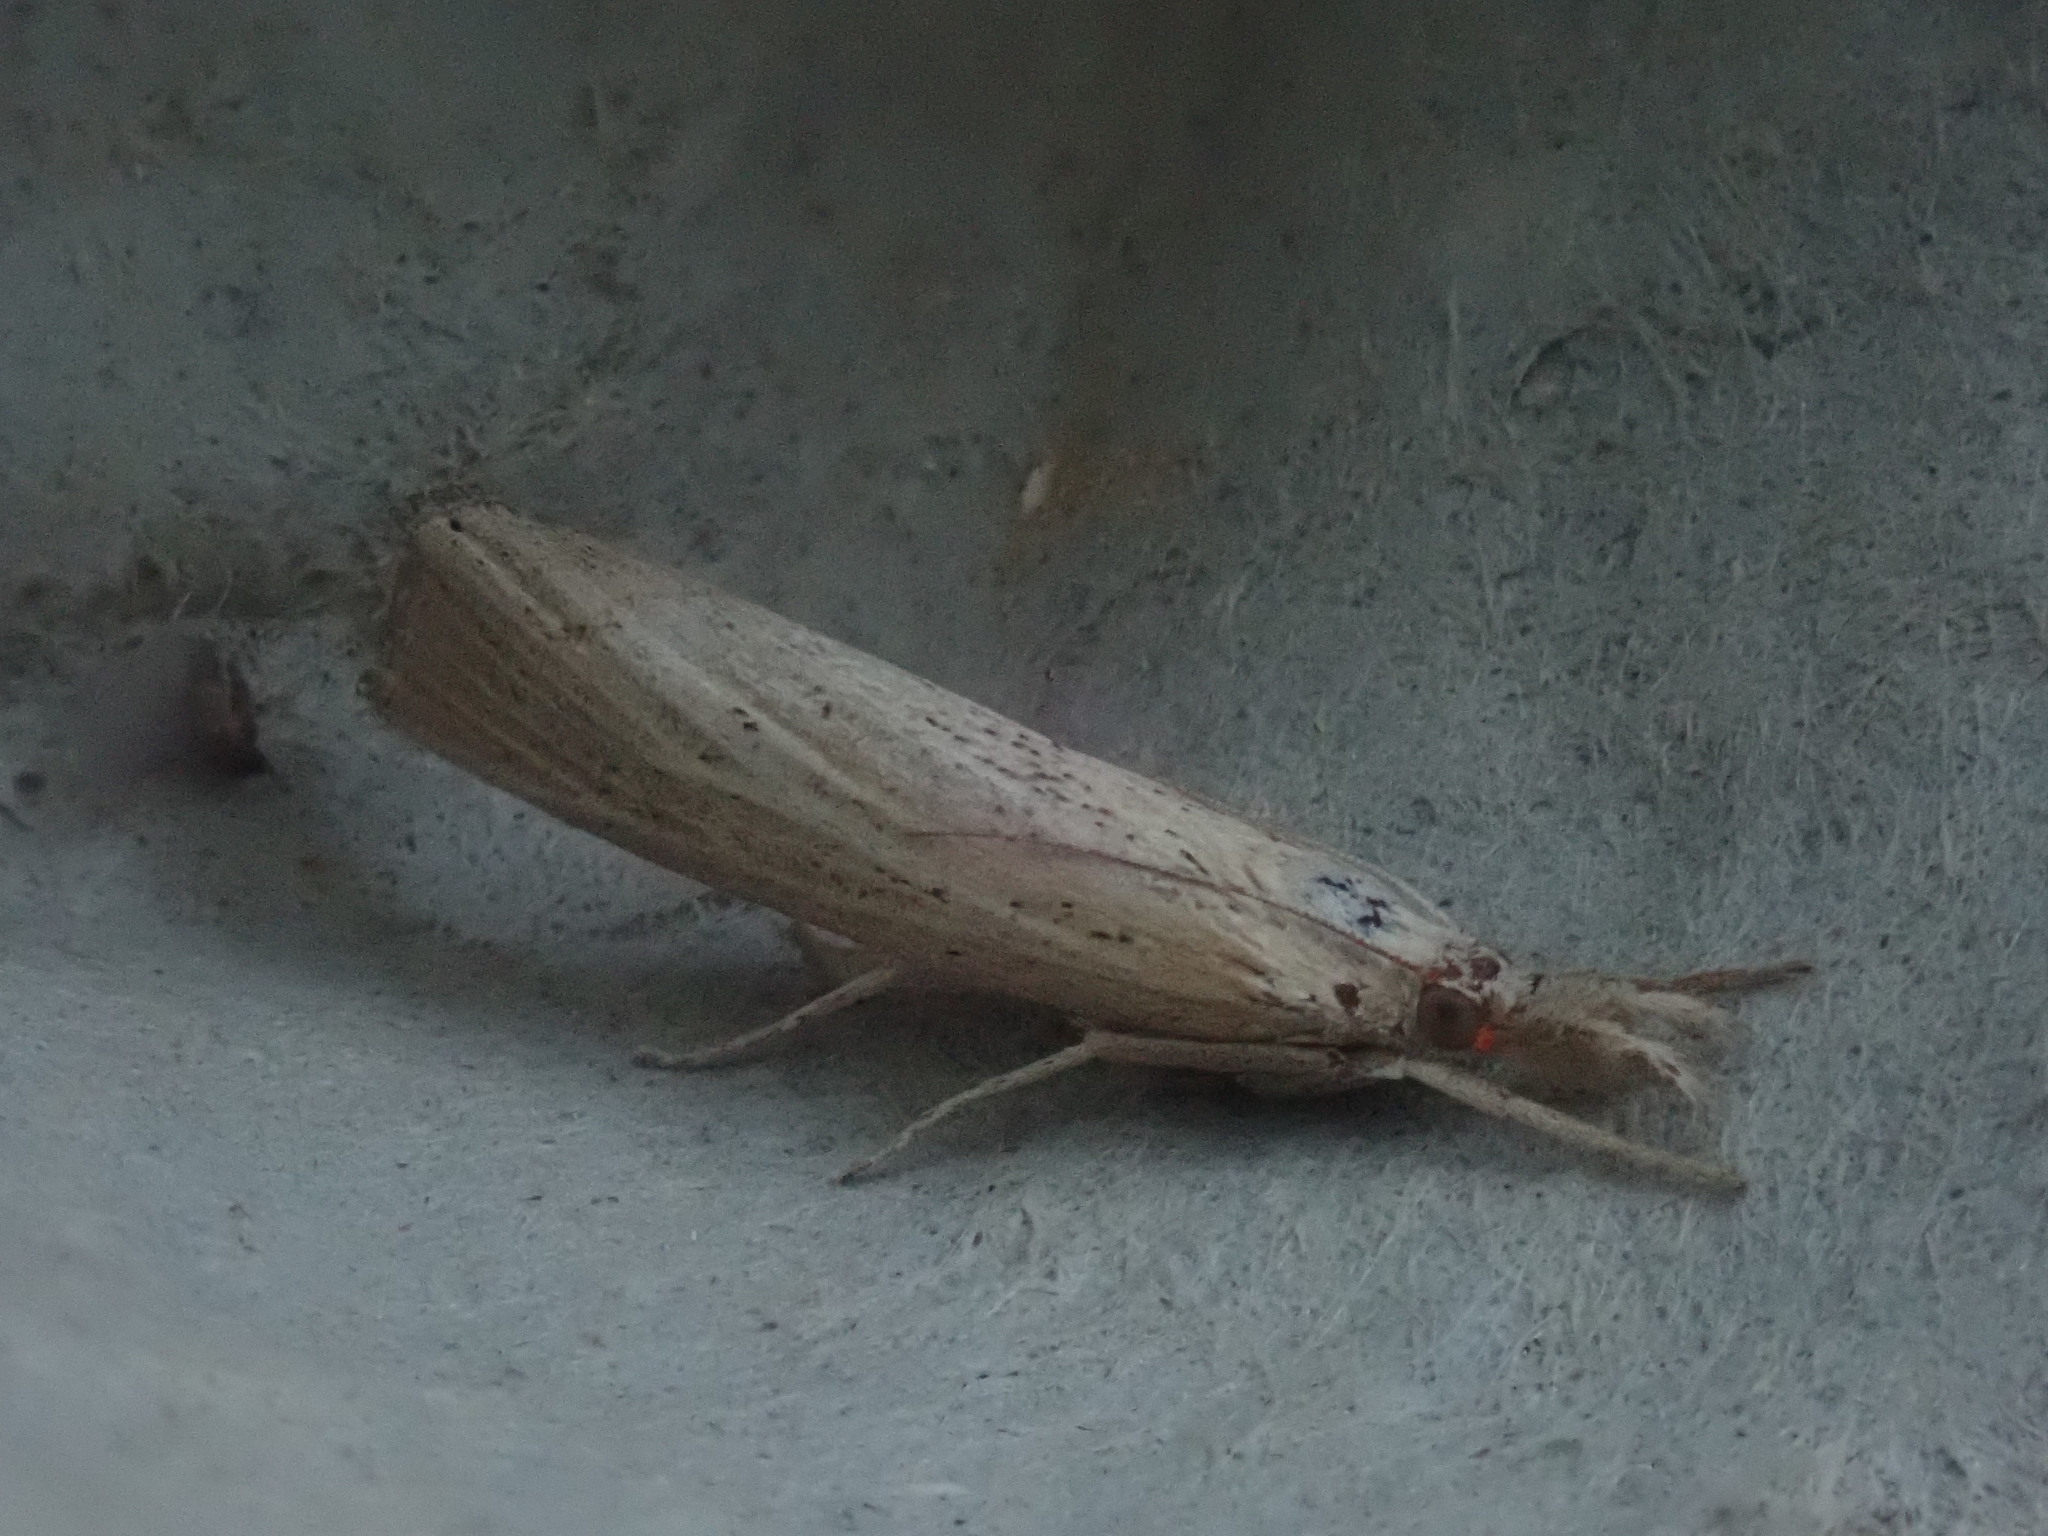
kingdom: Animalia
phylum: Arthropoda
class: Insecta
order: Lepidoptera
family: Crambidae
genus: Pediasia
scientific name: Pediasia trisecta
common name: Sod webworm moth
